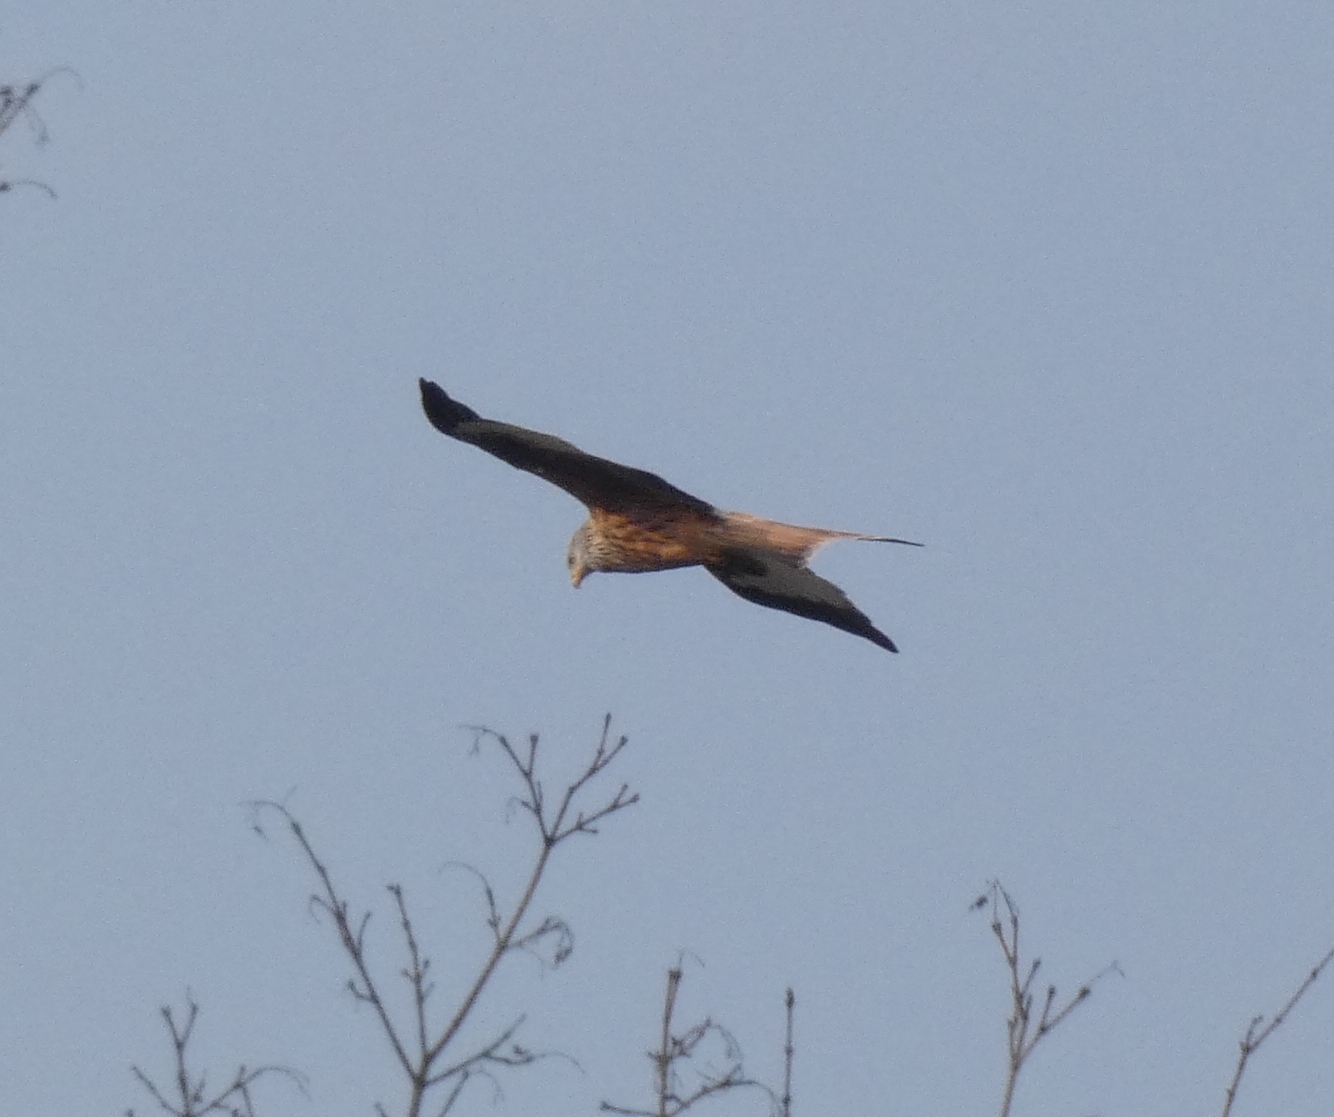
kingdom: Animalia
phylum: Chordata
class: Aves
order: Accipitriformes
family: Accipitridae
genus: Milvus
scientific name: Milvus milvus
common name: Red kite
